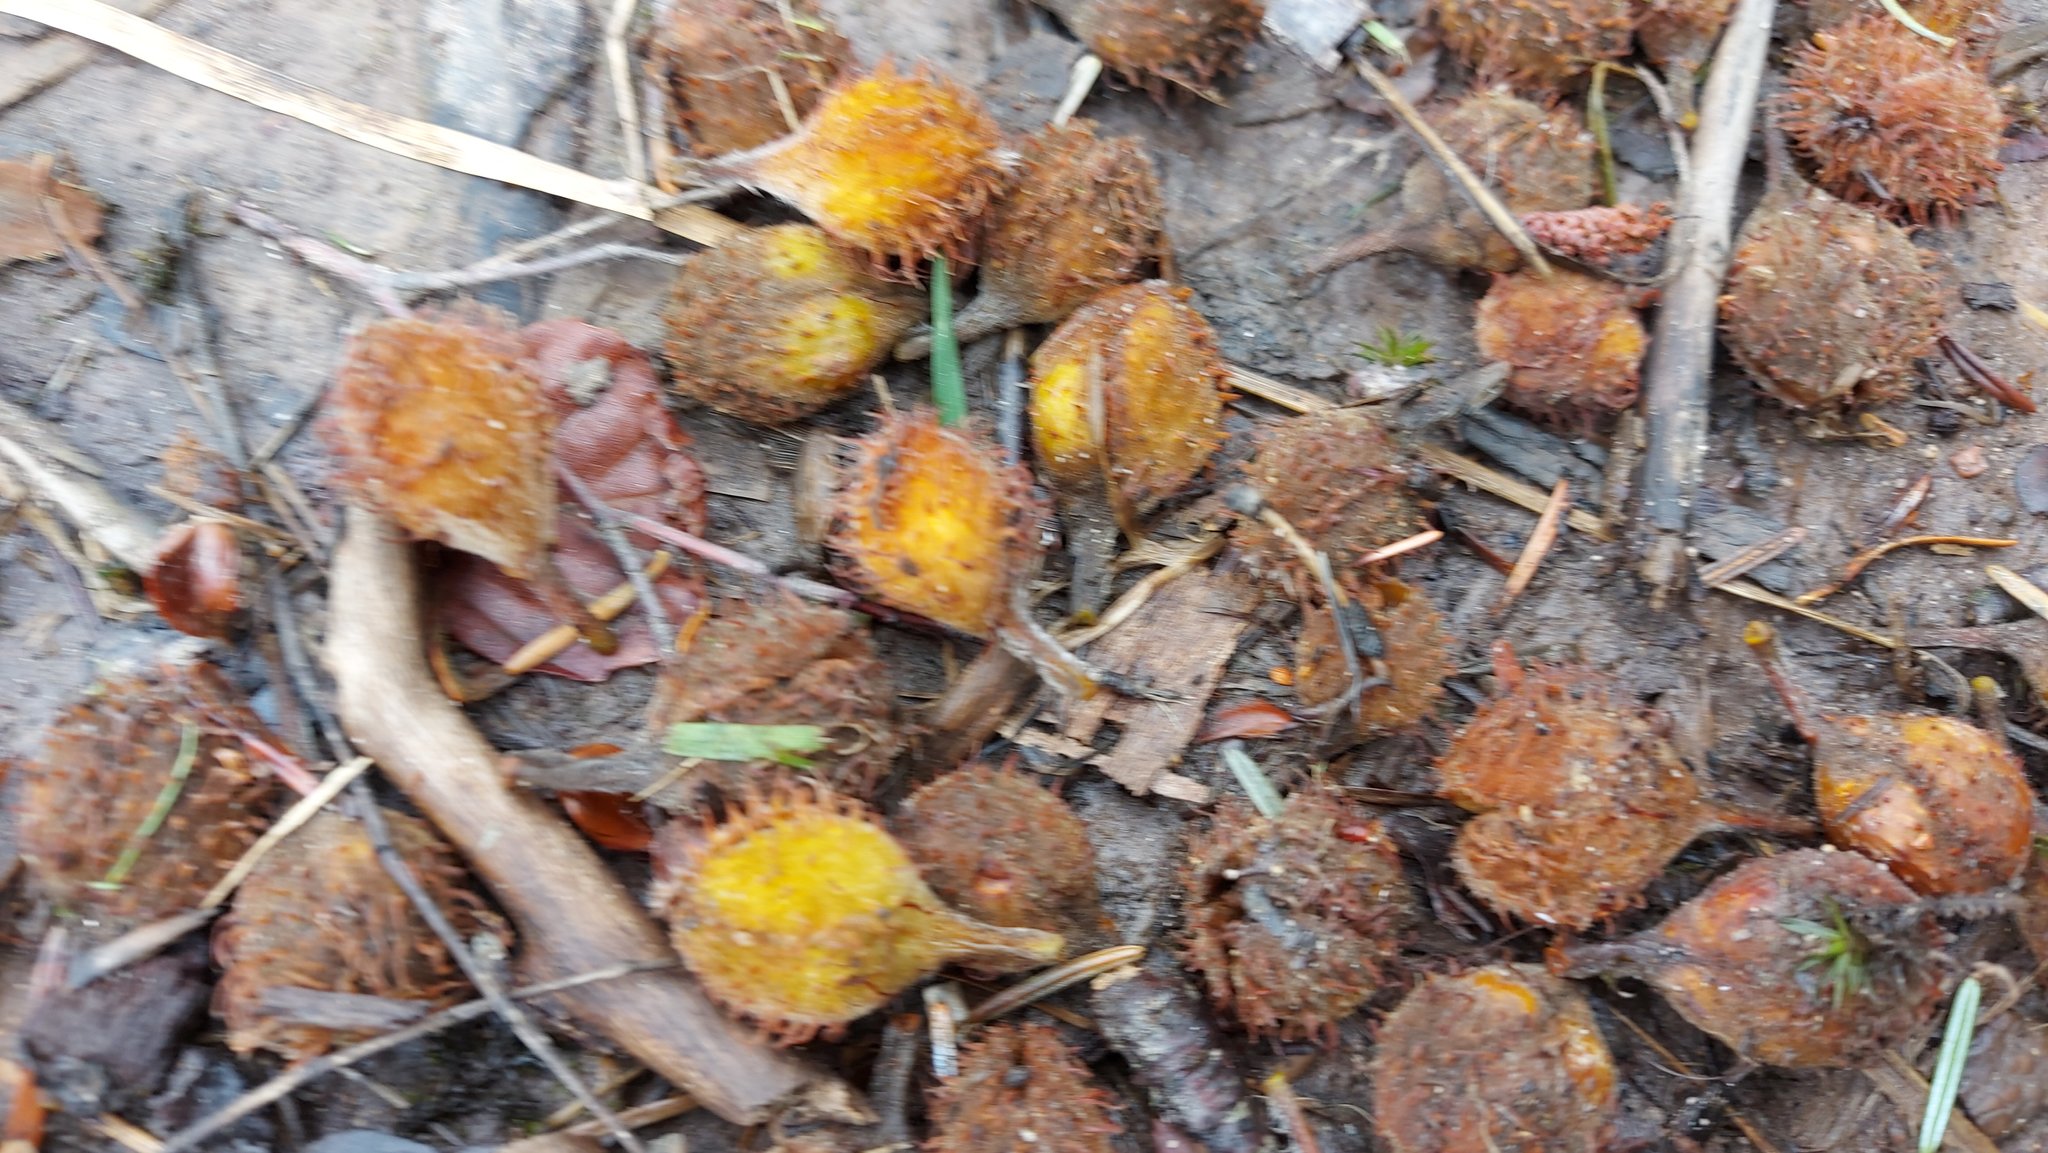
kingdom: Plantae
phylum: Tracheophyta
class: Magnoliopsida
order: Fagales
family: Fagaceae
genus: Fagus
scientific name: Fagus sylvatica
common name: Beech
